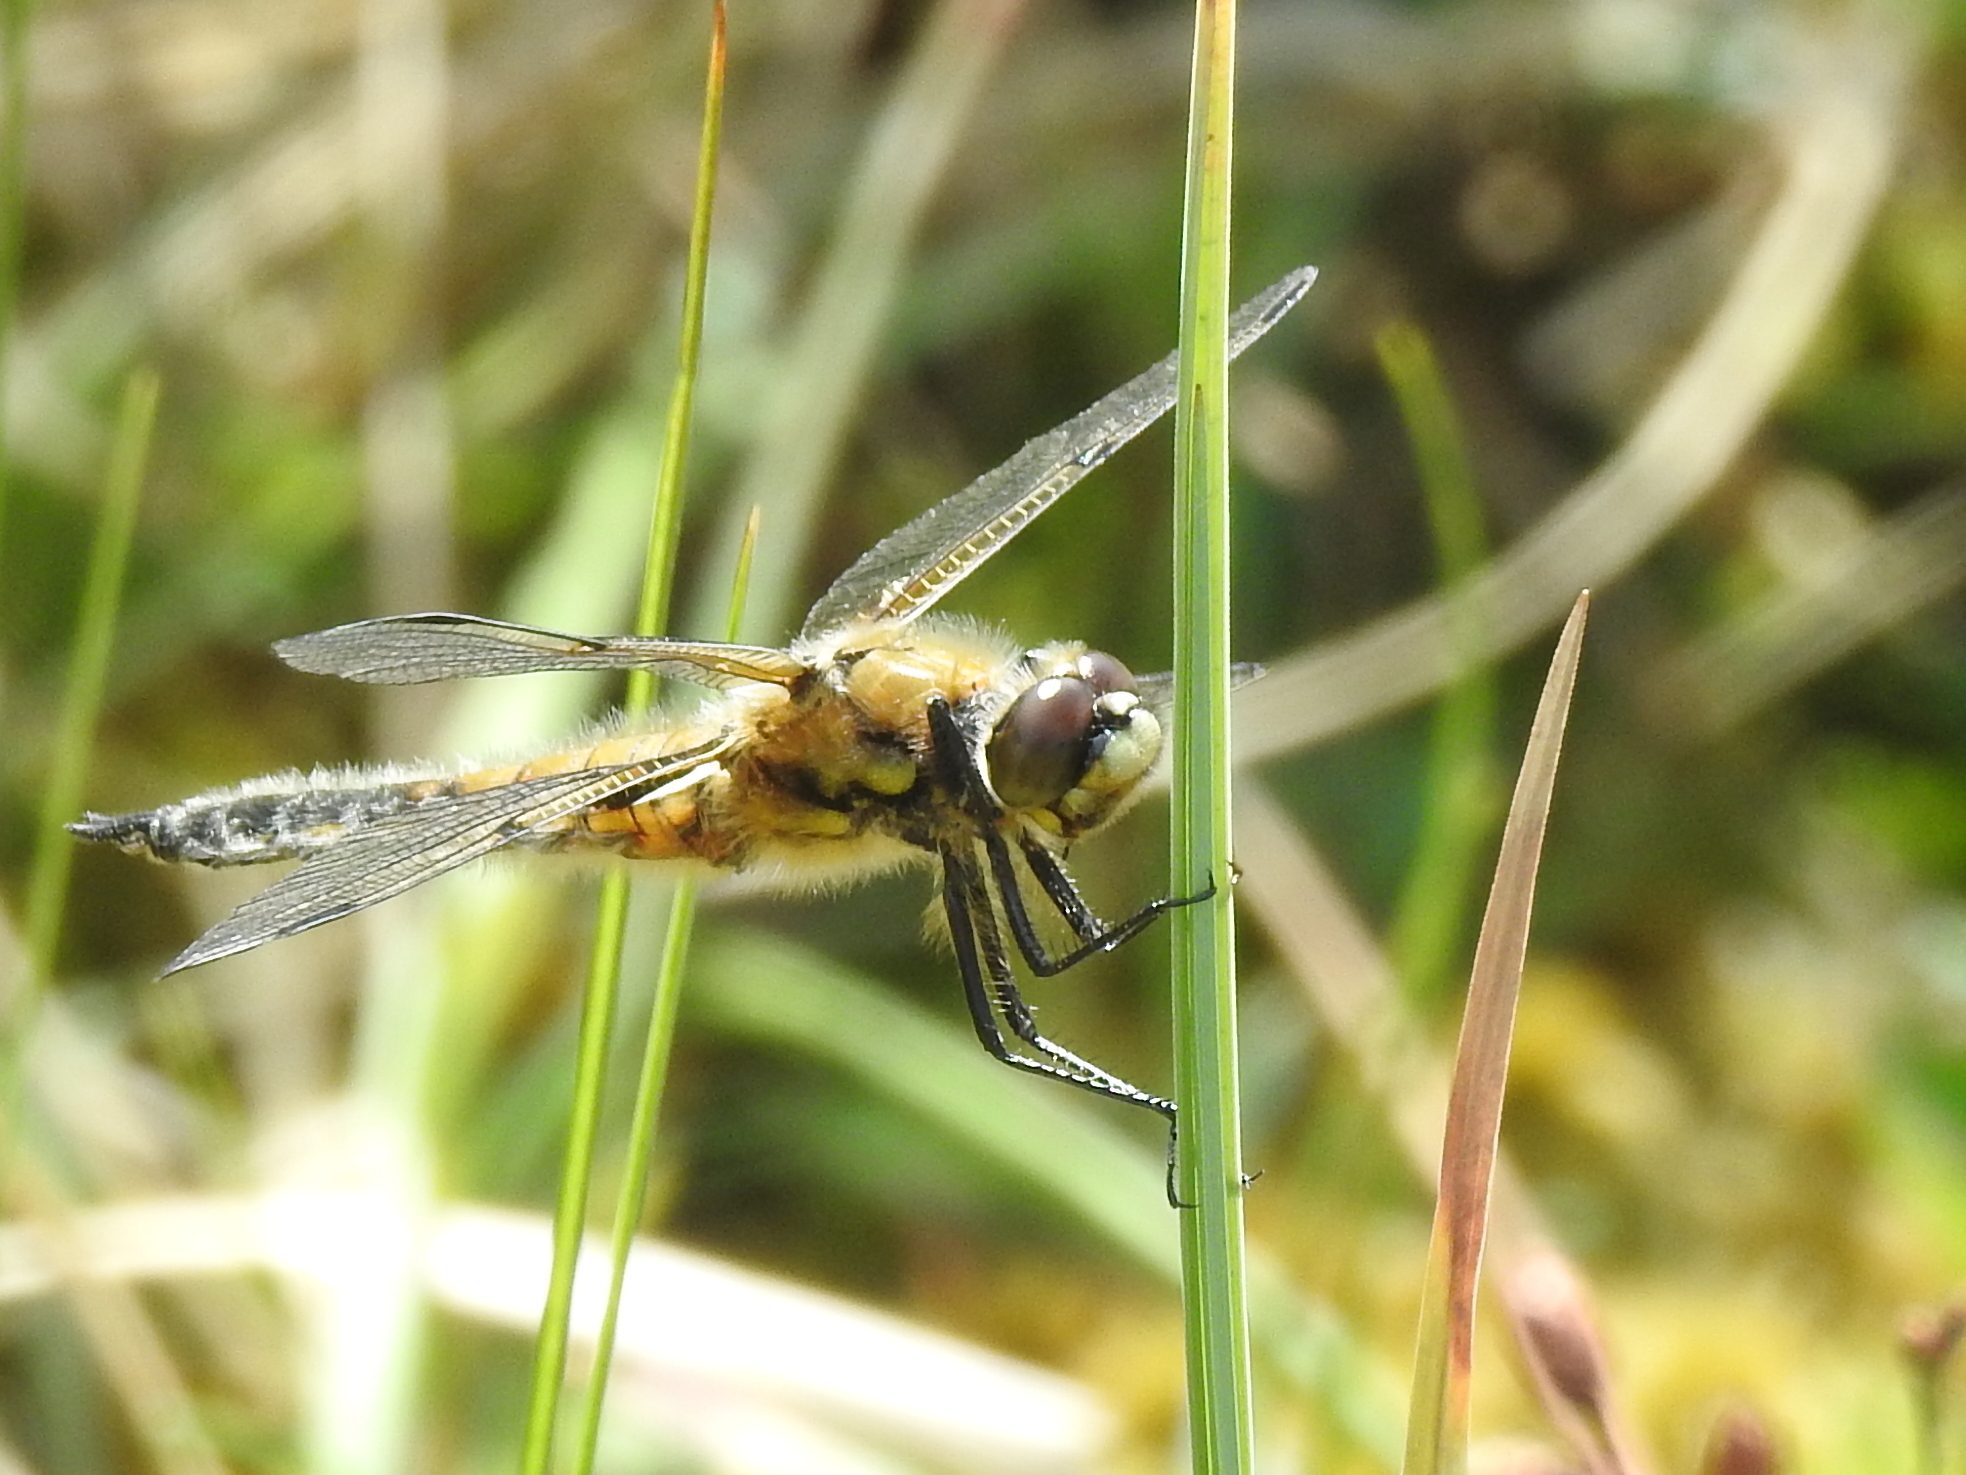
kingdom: Animalia
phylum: Arthropoda
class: Insecta
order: Odonata
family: Libellulidae
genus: Libellula
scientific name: Libellula quadrimaculata
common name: Four-spotted chaser
